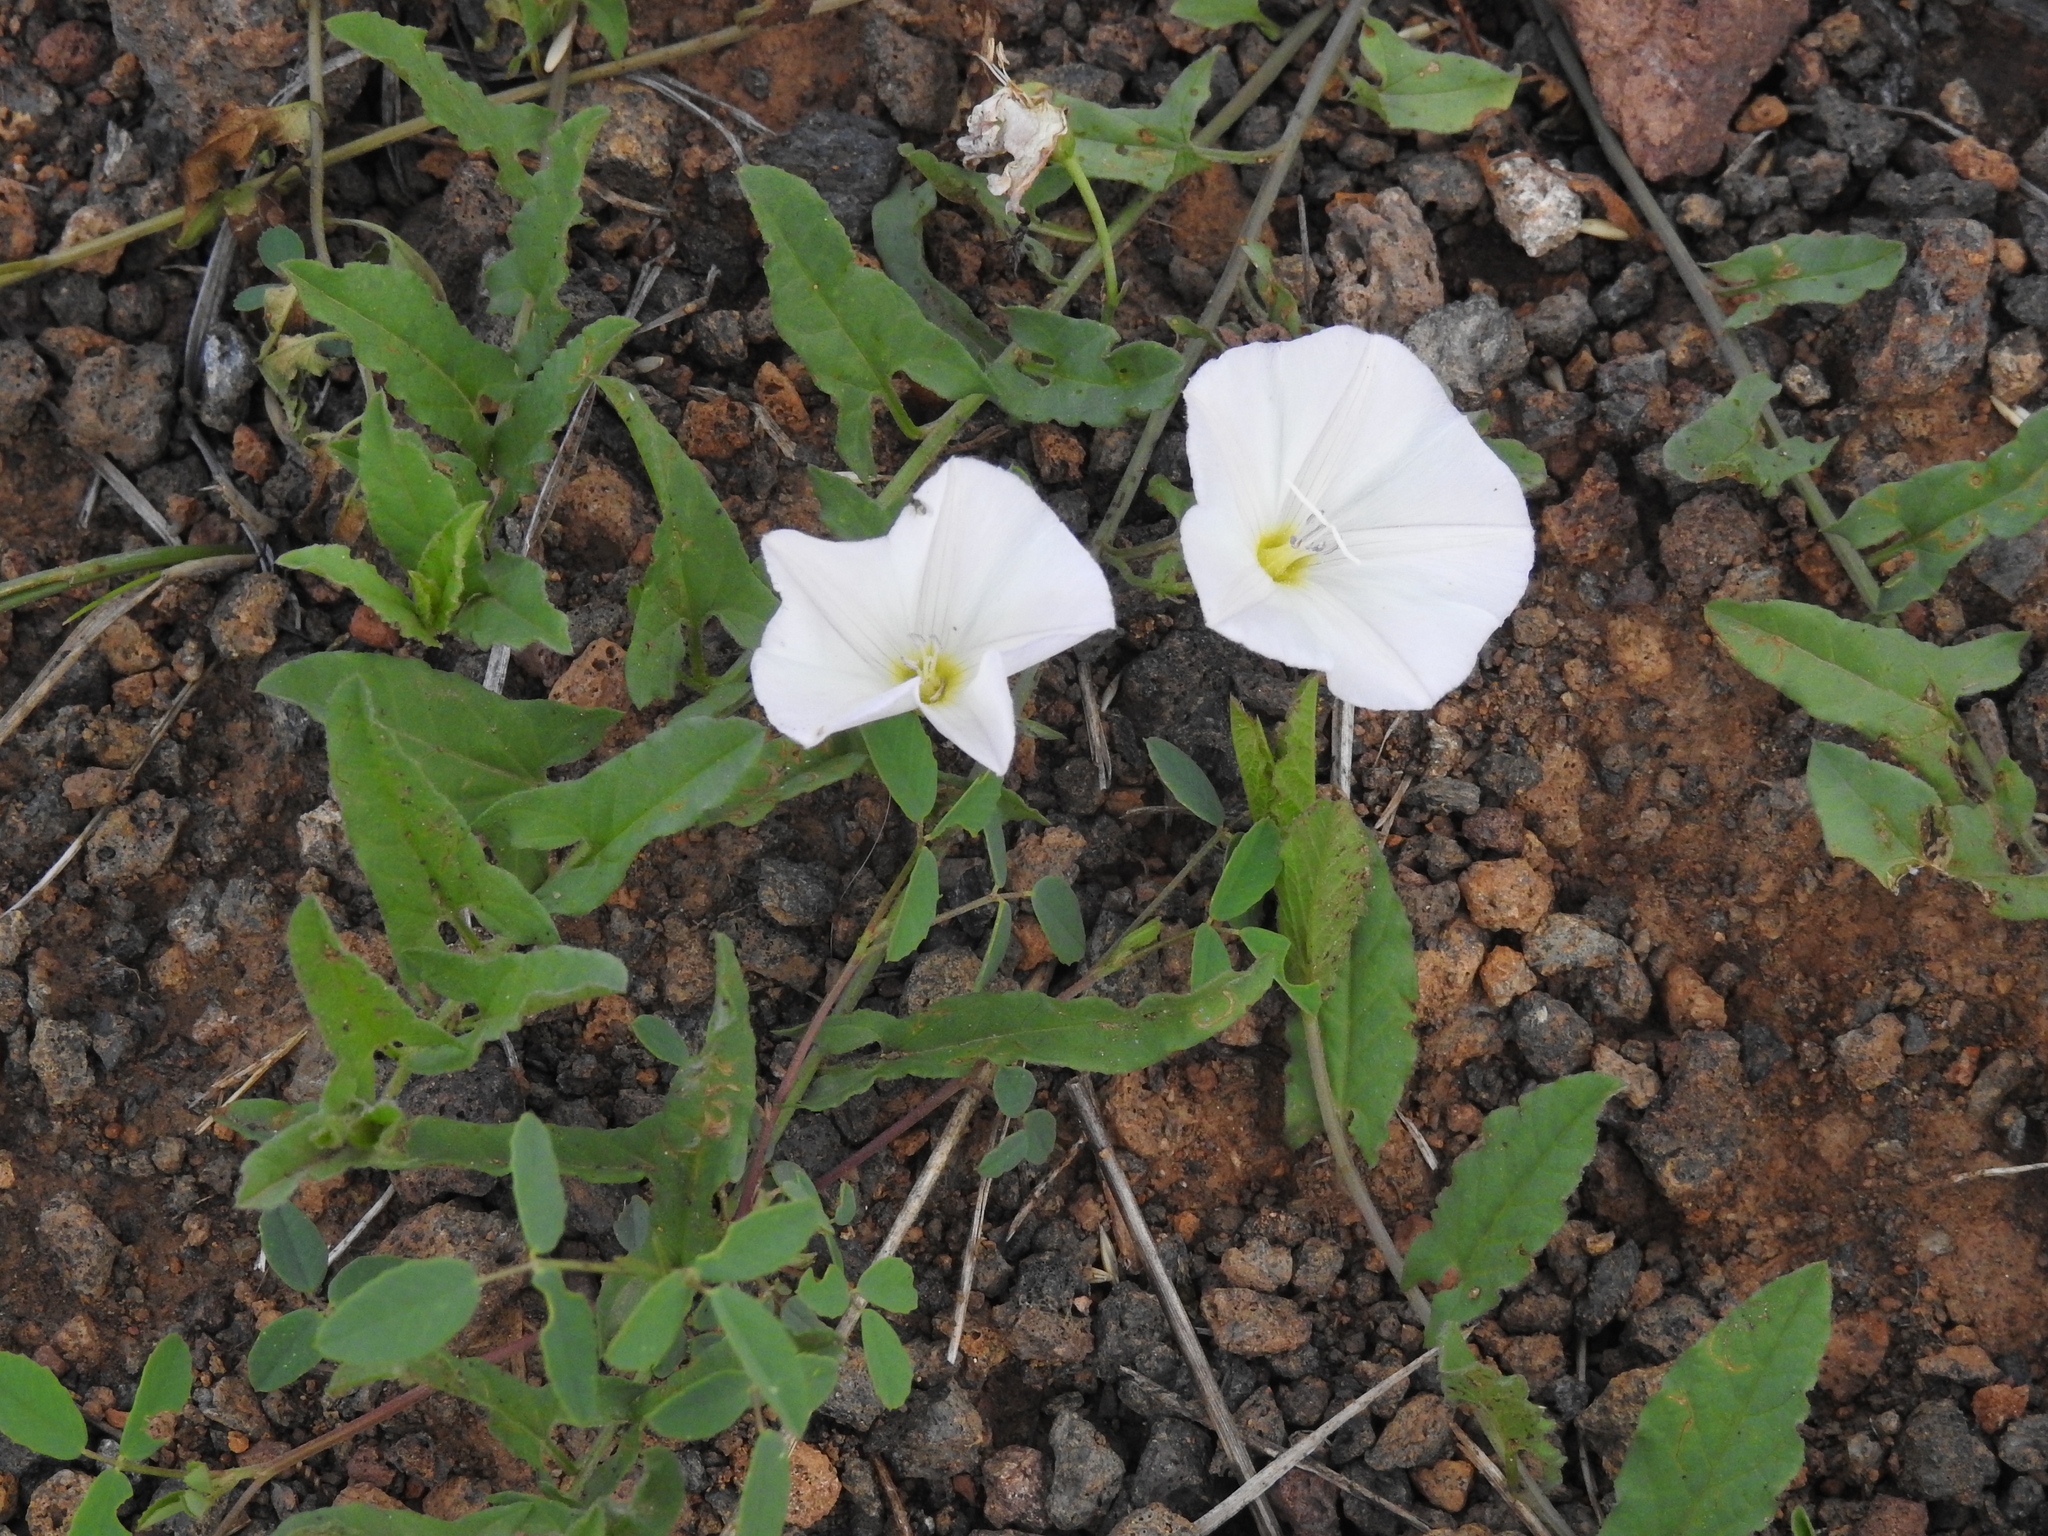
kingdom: Plantae
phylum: Tracheophyta
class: Magnoliopsida
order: Solanales
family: Convolvulaceae
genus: Convolvulus
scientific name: Convolvulus arvensis
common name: Field bindweed
